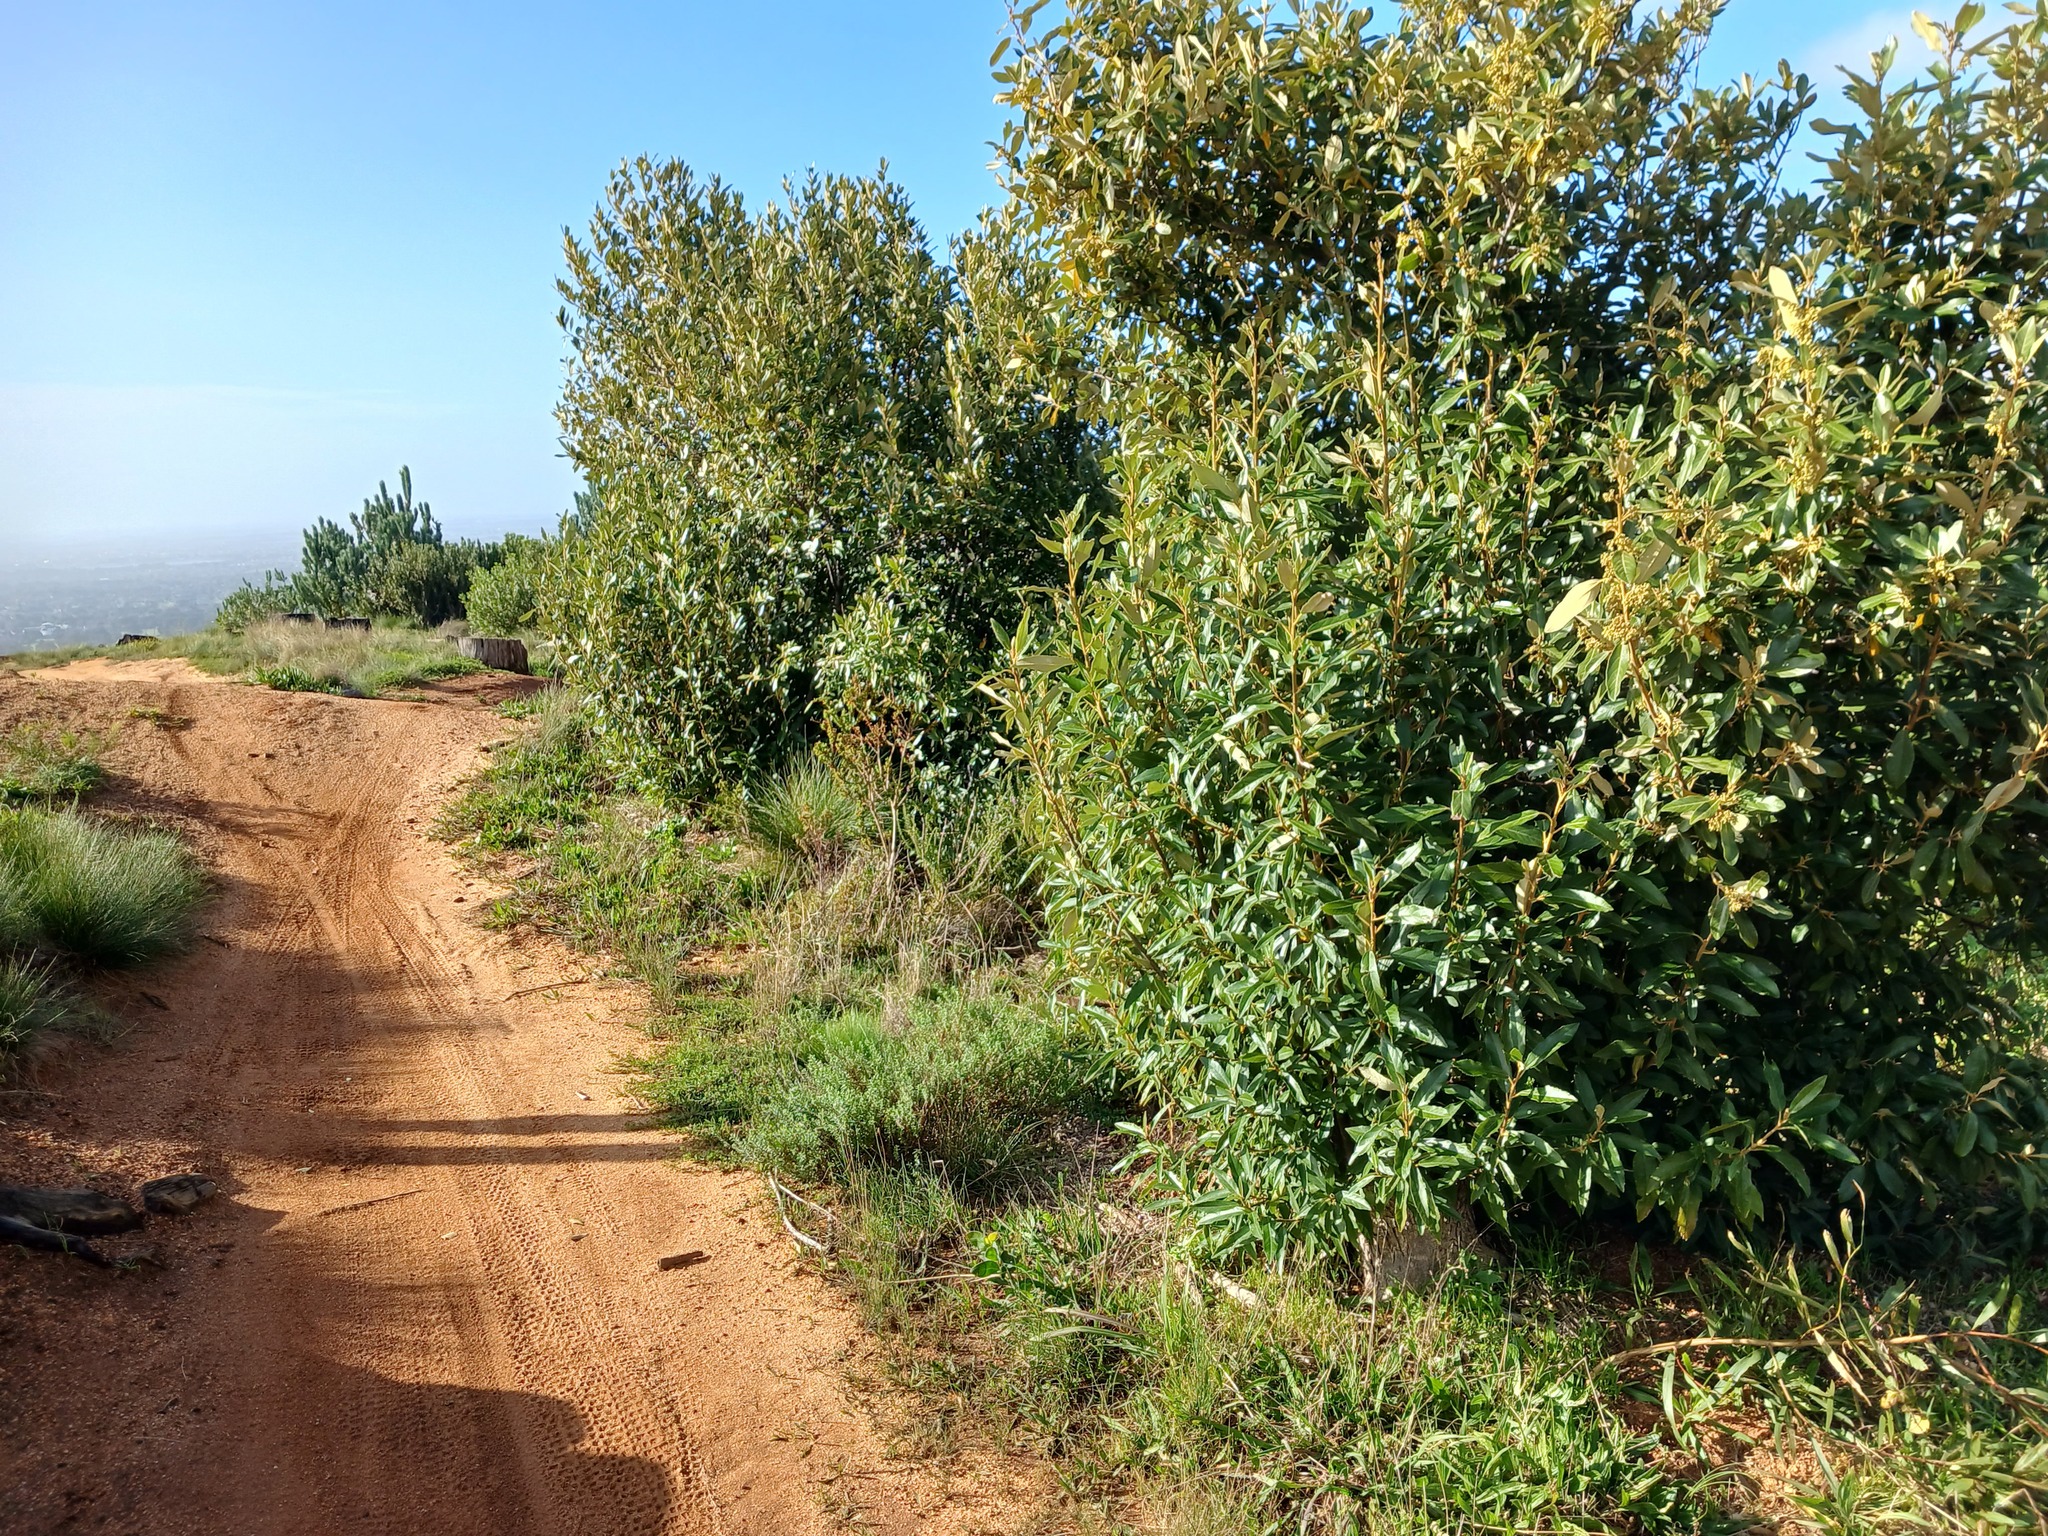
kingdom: Plantae
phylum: Tracheophyta
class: Magnoliopsida
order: Malpighiales
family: Achariaceae
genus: Kiggelaria
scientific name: Kiggelaria africana
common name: Wild peach
